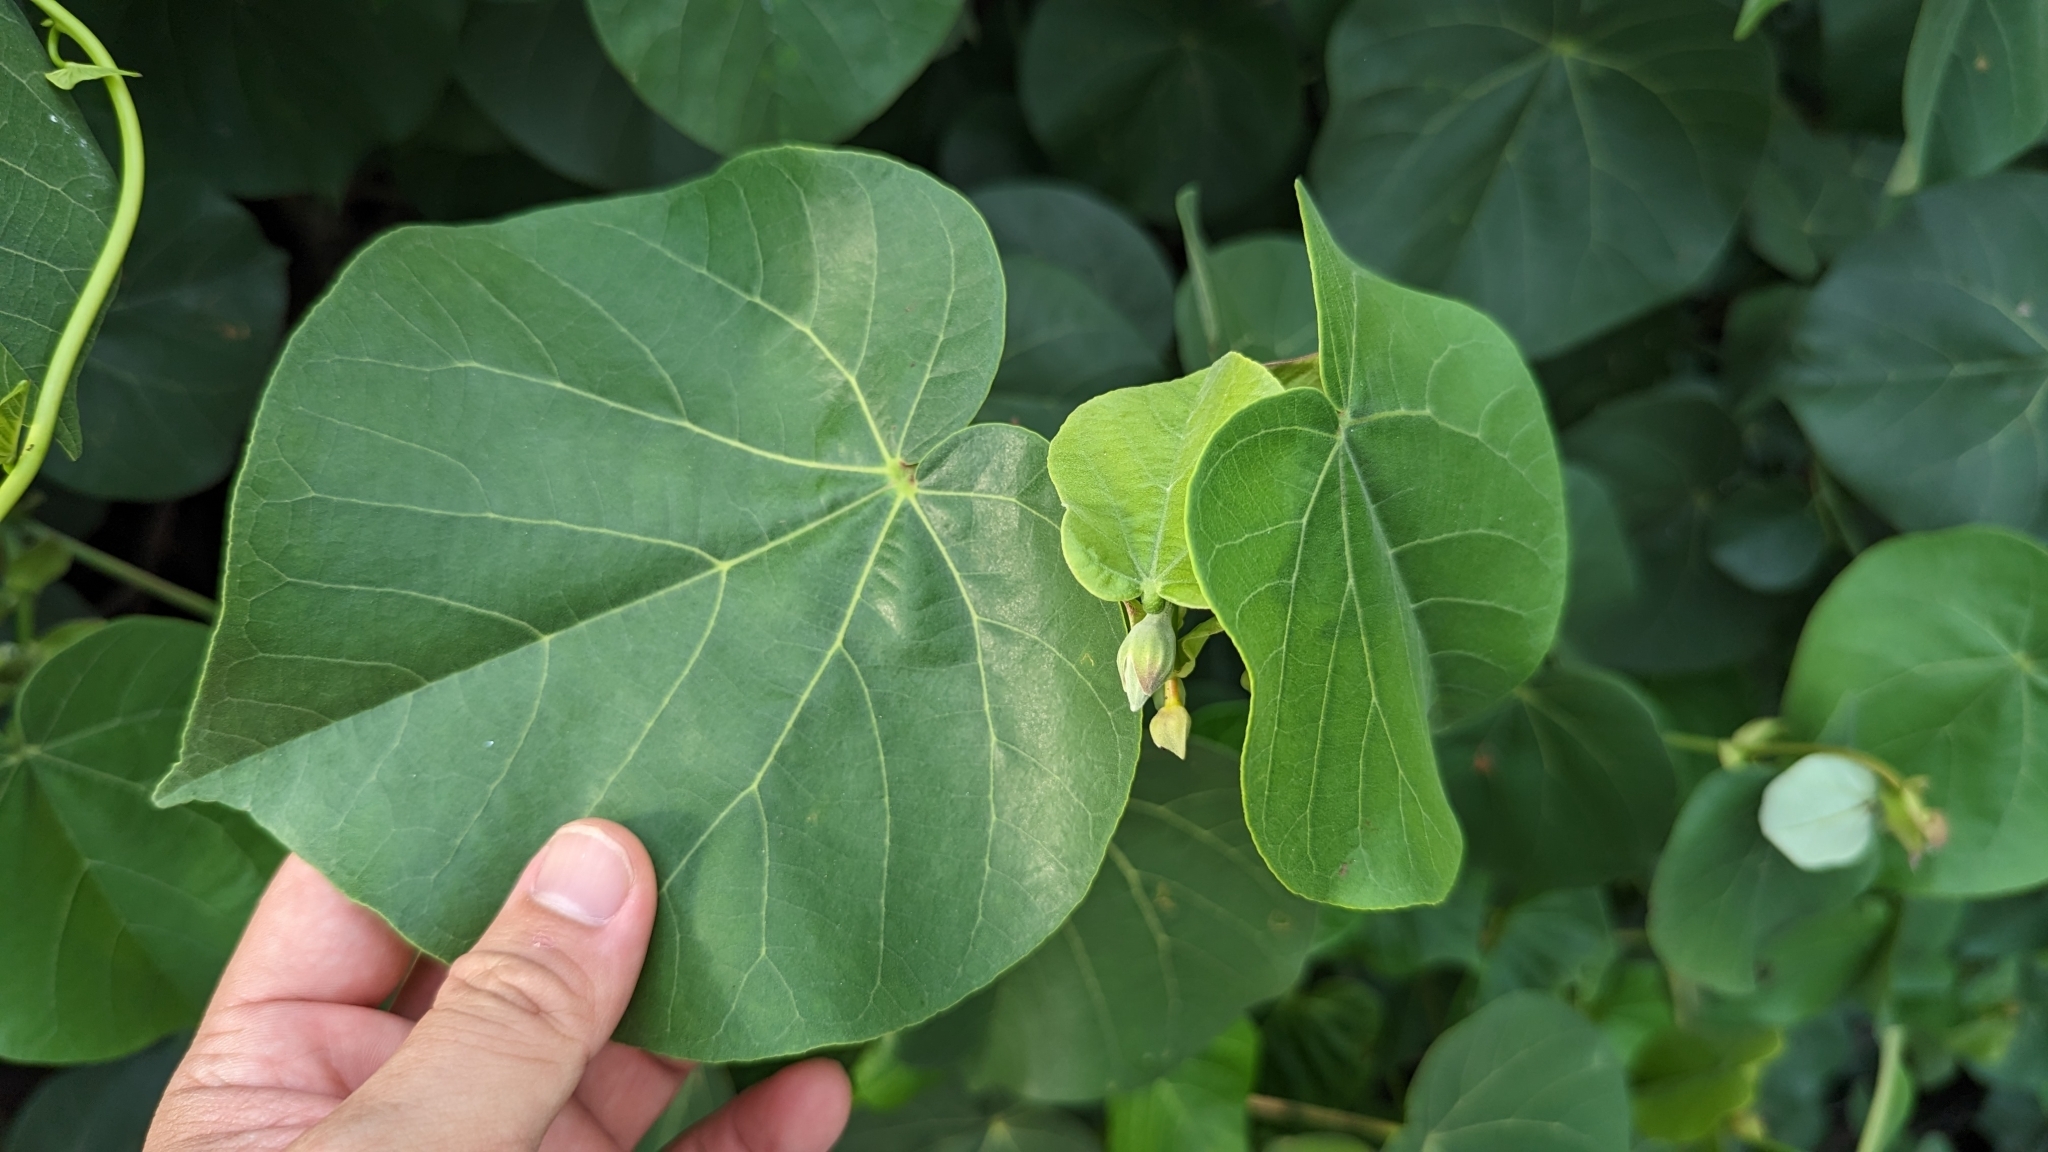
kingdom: Plantae
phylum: Tracheophyta
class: Magnoliopsida
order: Malvales
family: Malvaceae
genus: Talipariti
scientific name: Talipariti tiliaceum
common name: Sea hibiscus
